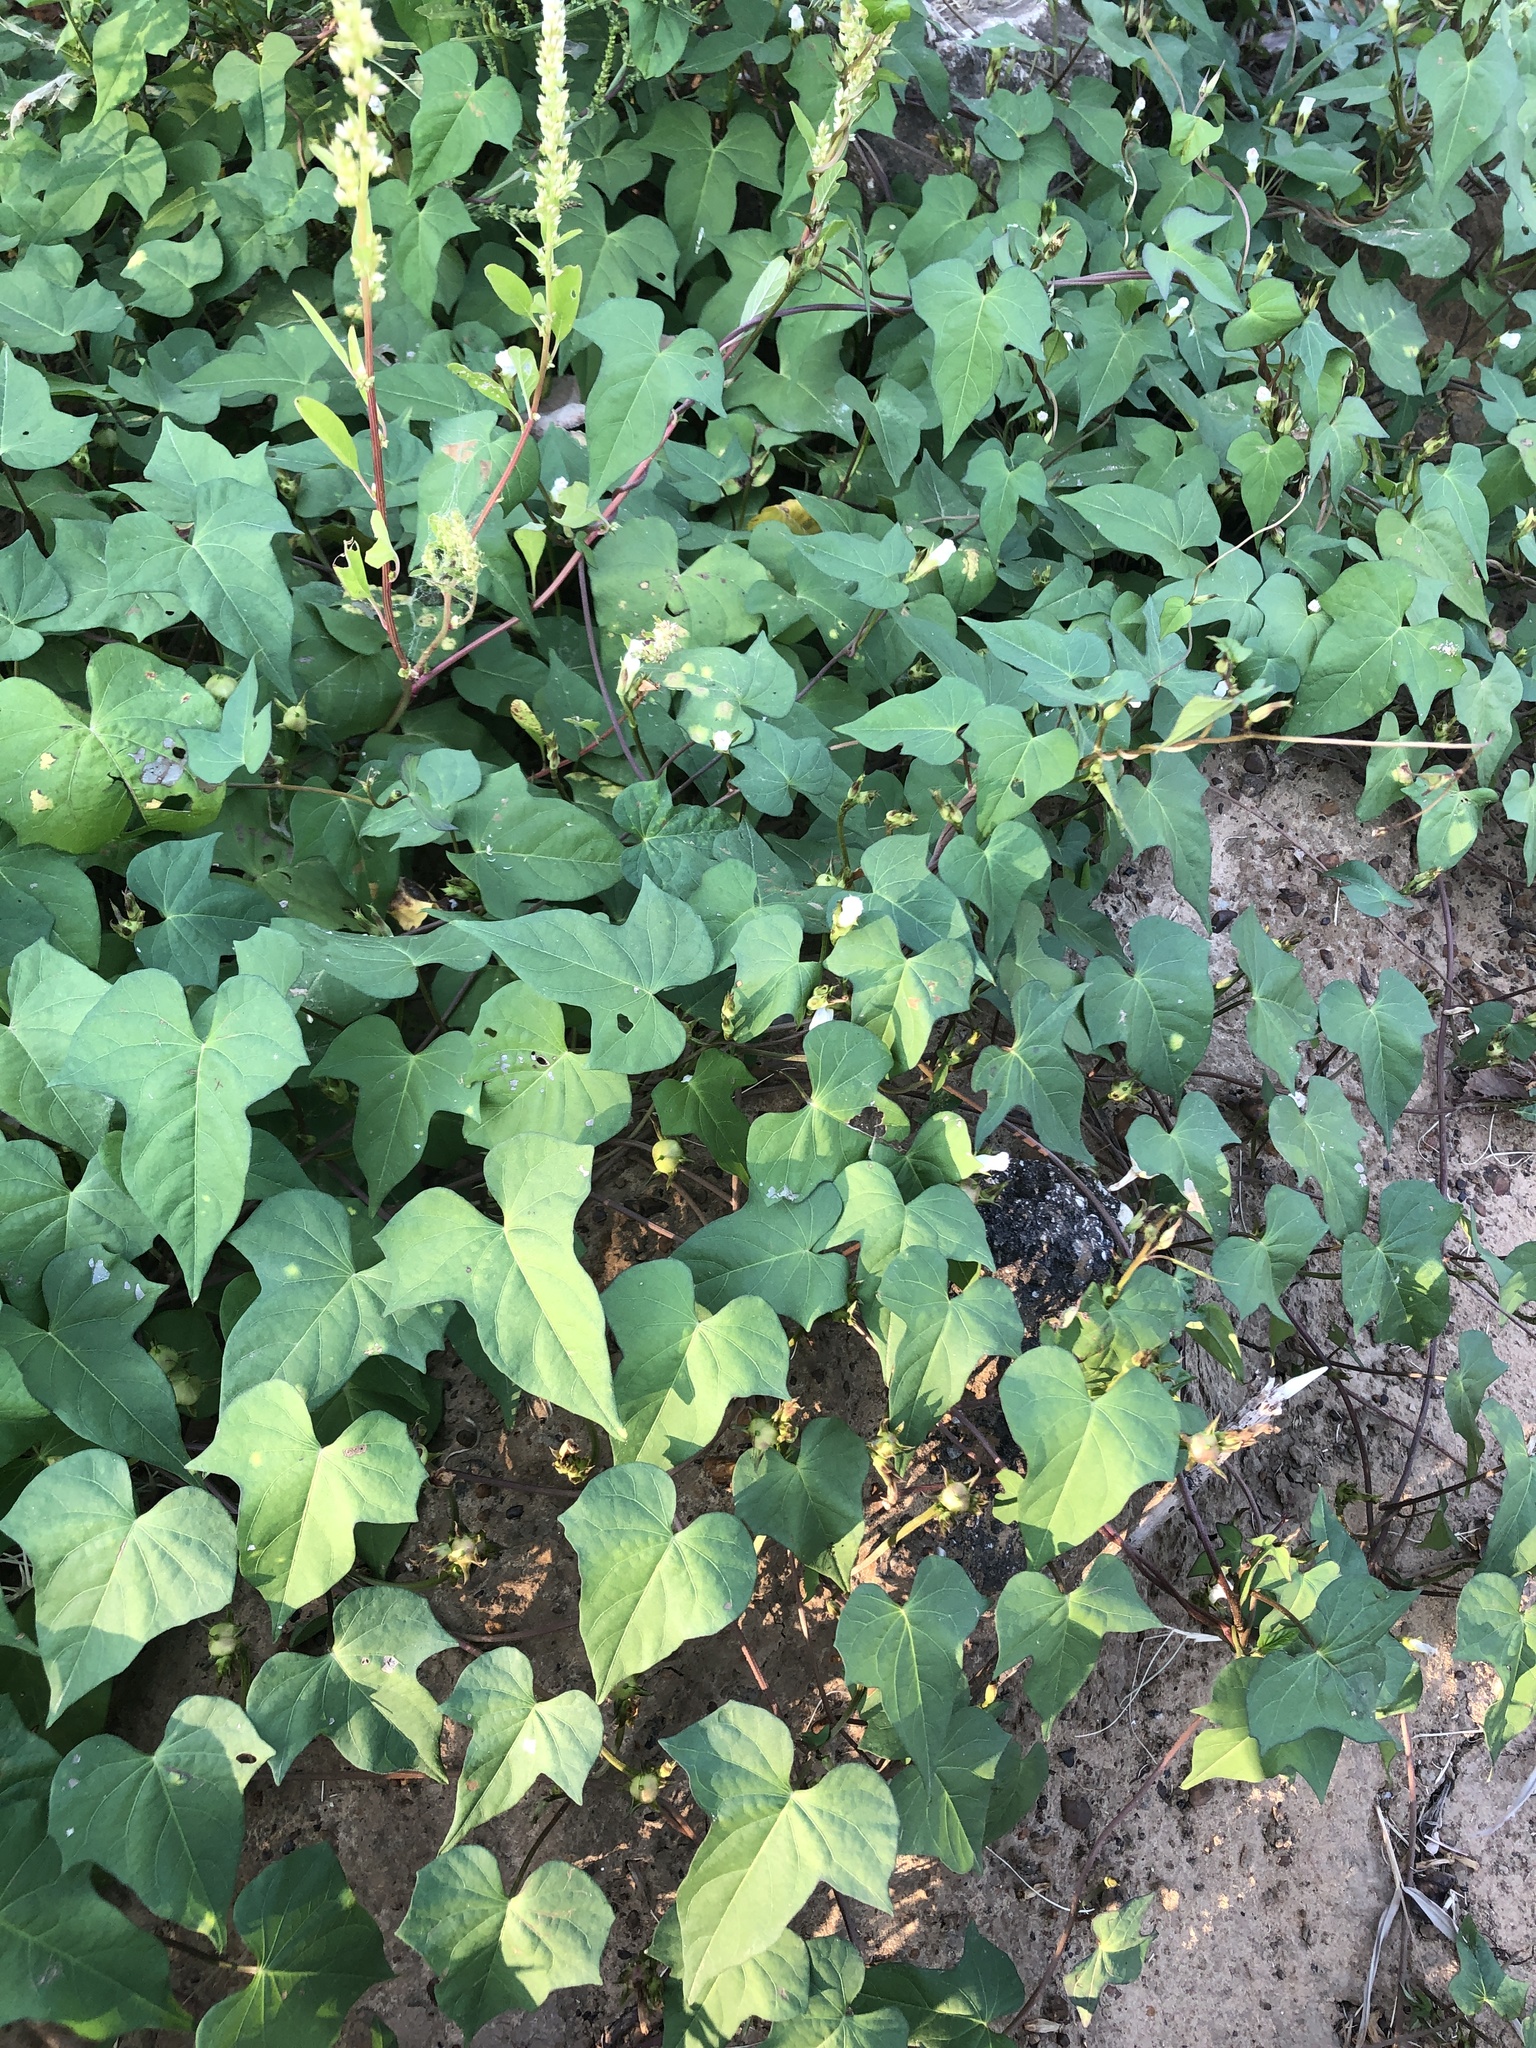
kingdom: Plantae
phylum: Tracheophyta
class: Magnoliopsida
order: Solanales
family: Convolvulaceae
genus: Ipomoea
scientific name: Ipomoea lacunosa
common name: White morning-glory
